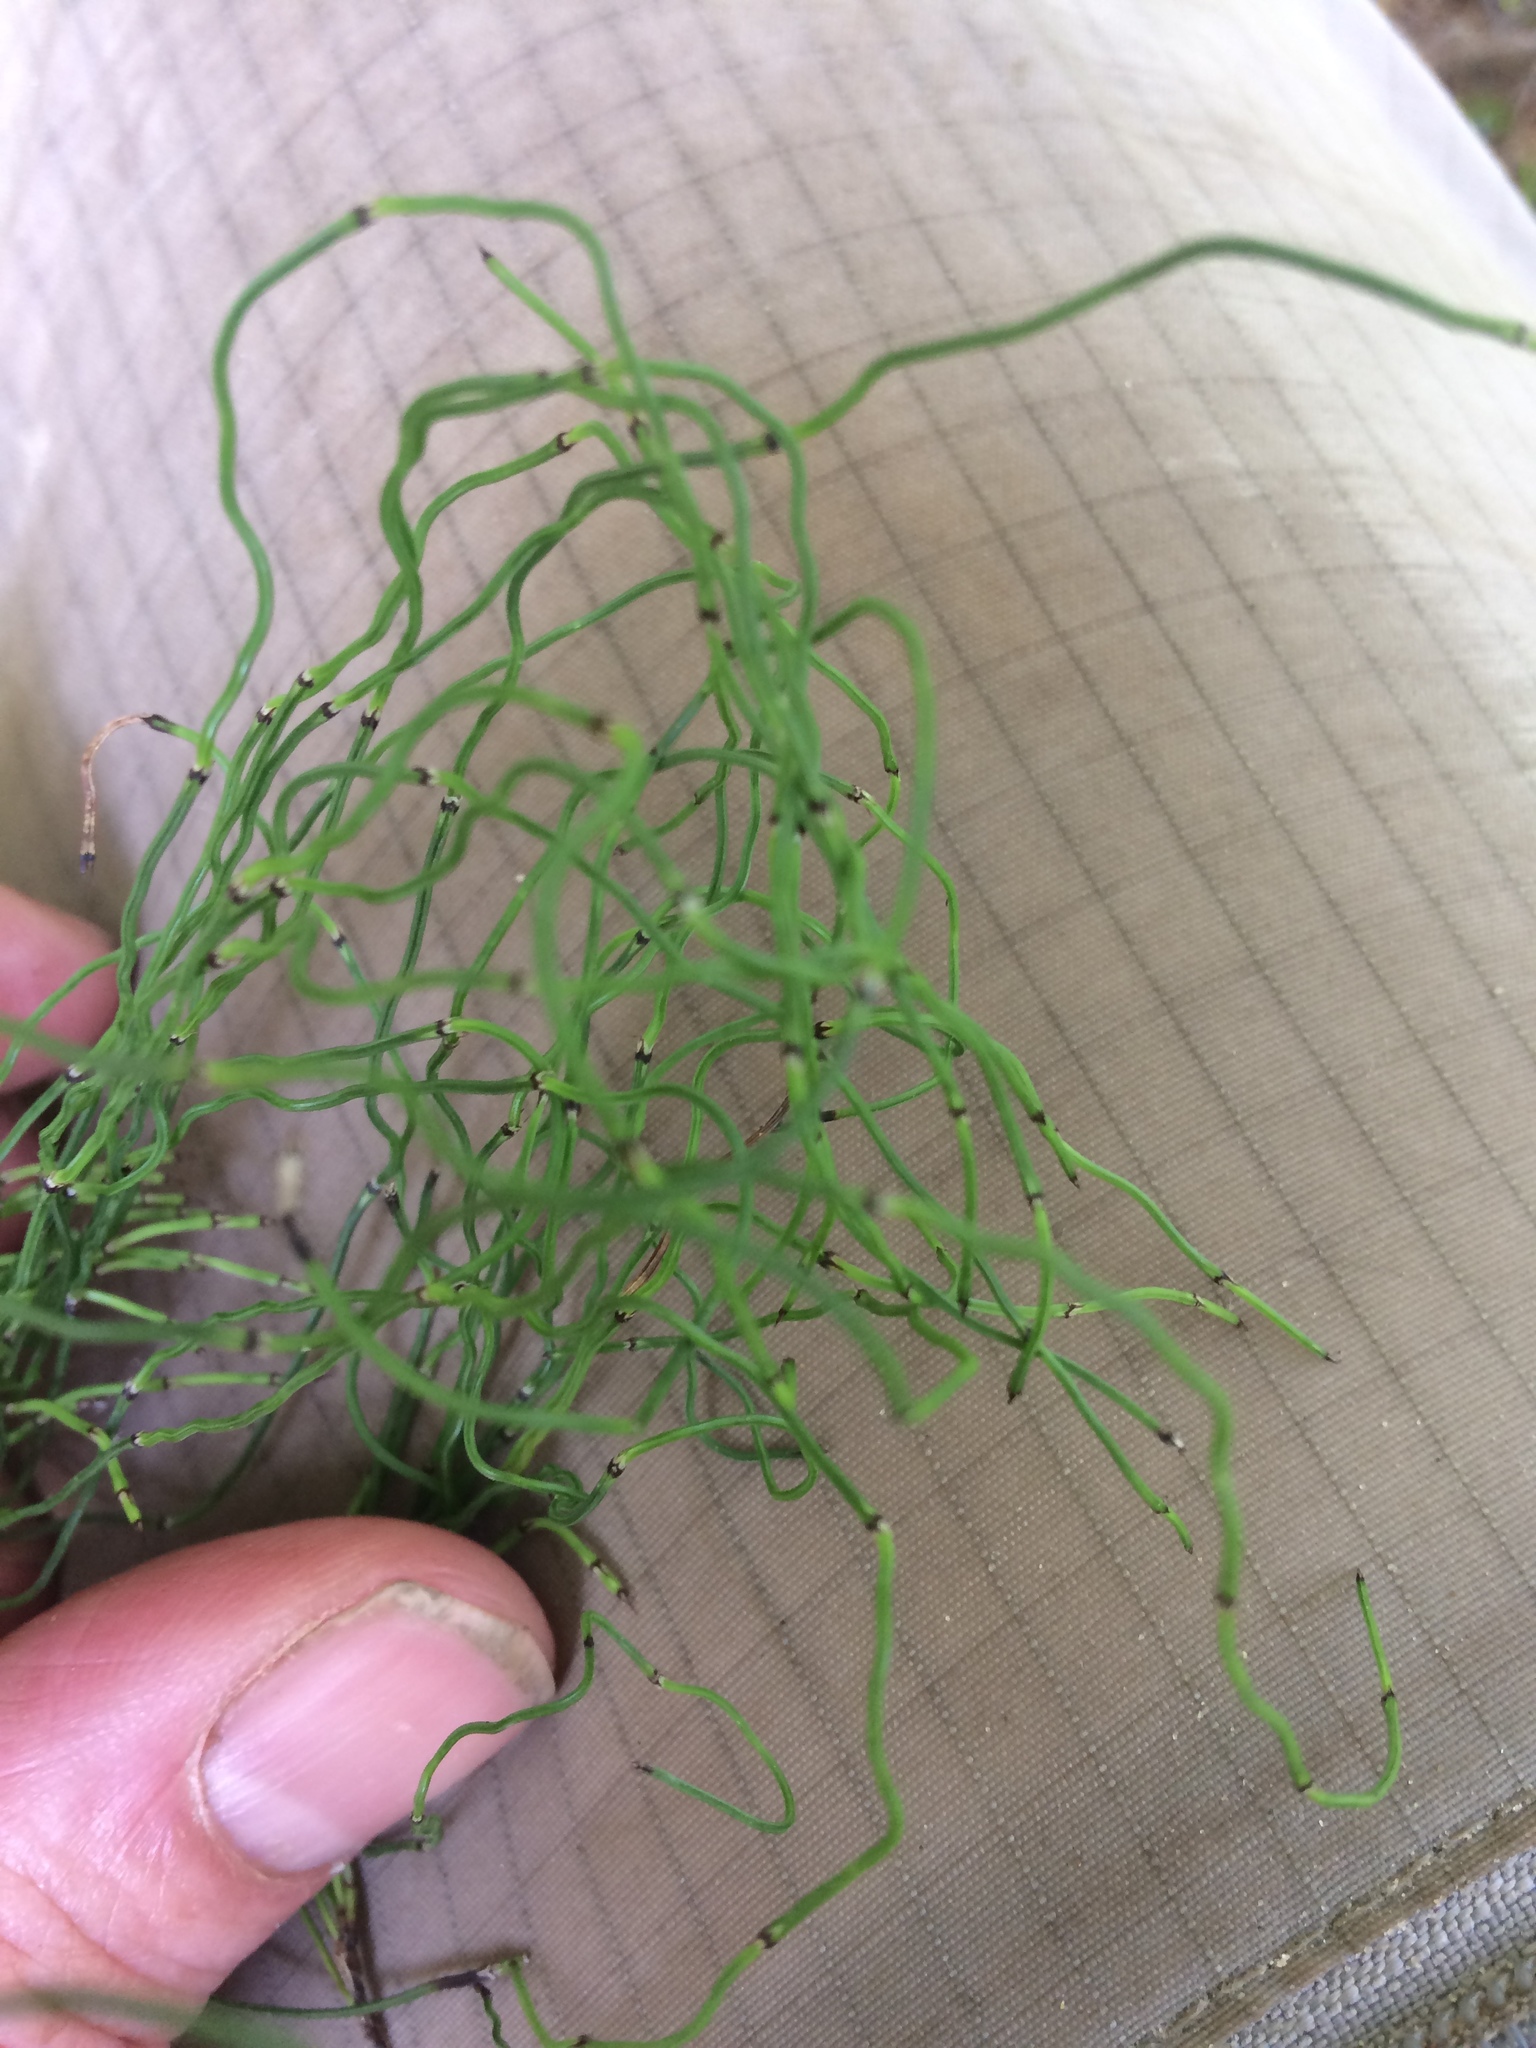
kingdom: Plantae
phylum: Tracheophyta
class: Polypodiopsida
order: Equisetales
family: Equisetaceae
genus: Equisetum
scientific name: Equisetum scirpoides
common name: Delicate horsetail
